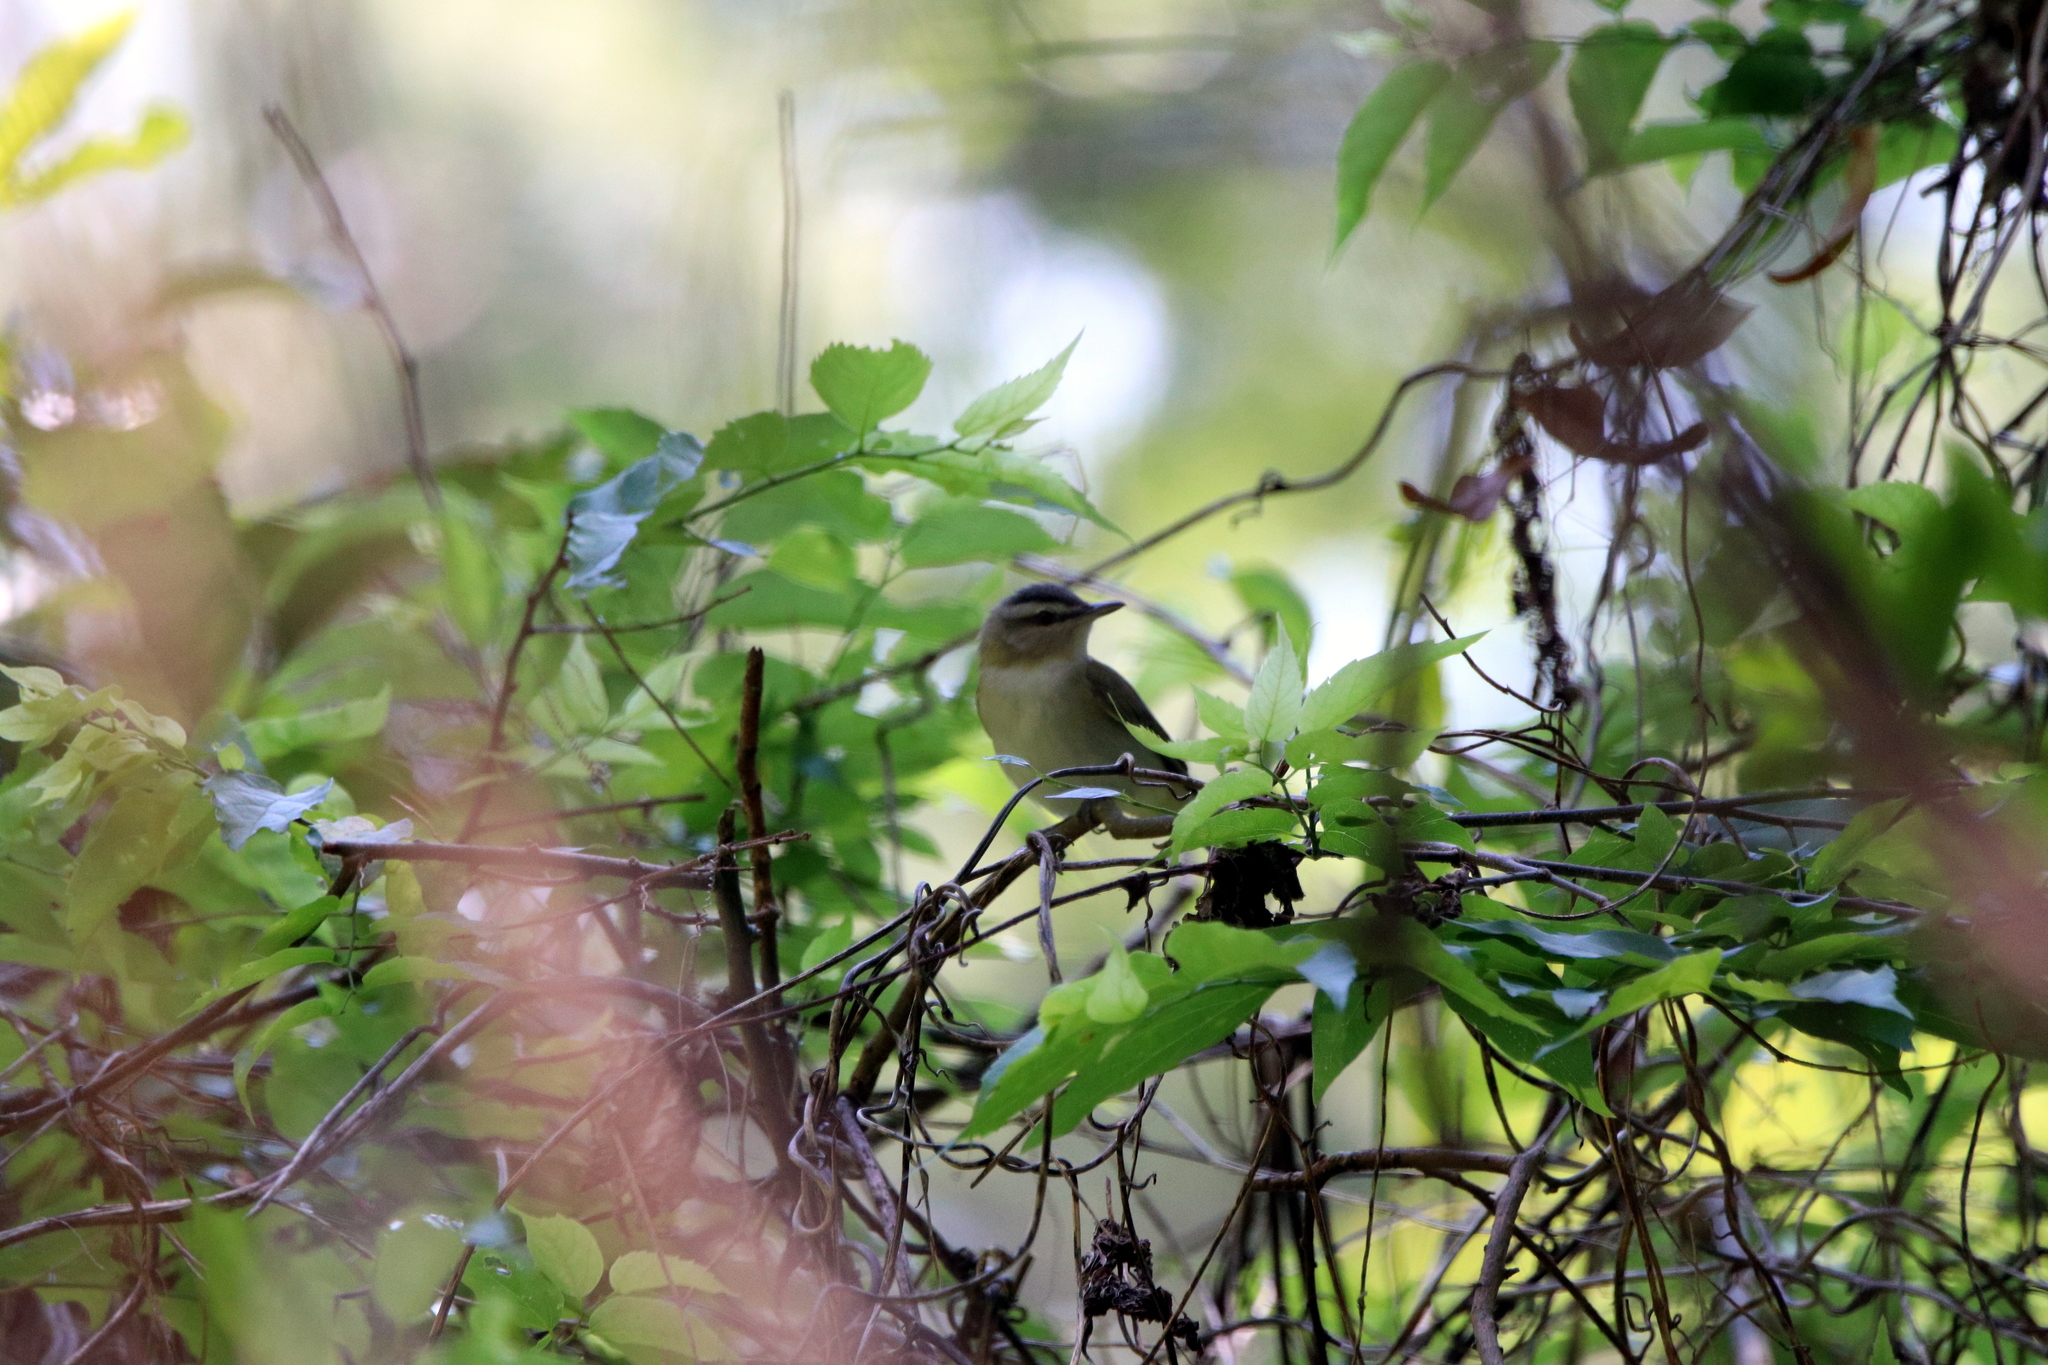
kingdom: Animalia
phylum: Chordata
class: Aves
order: Passeriformes
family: Vireonidae
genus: Vireo
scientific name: Vireo olivaceus
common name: Red-eyed vireo
